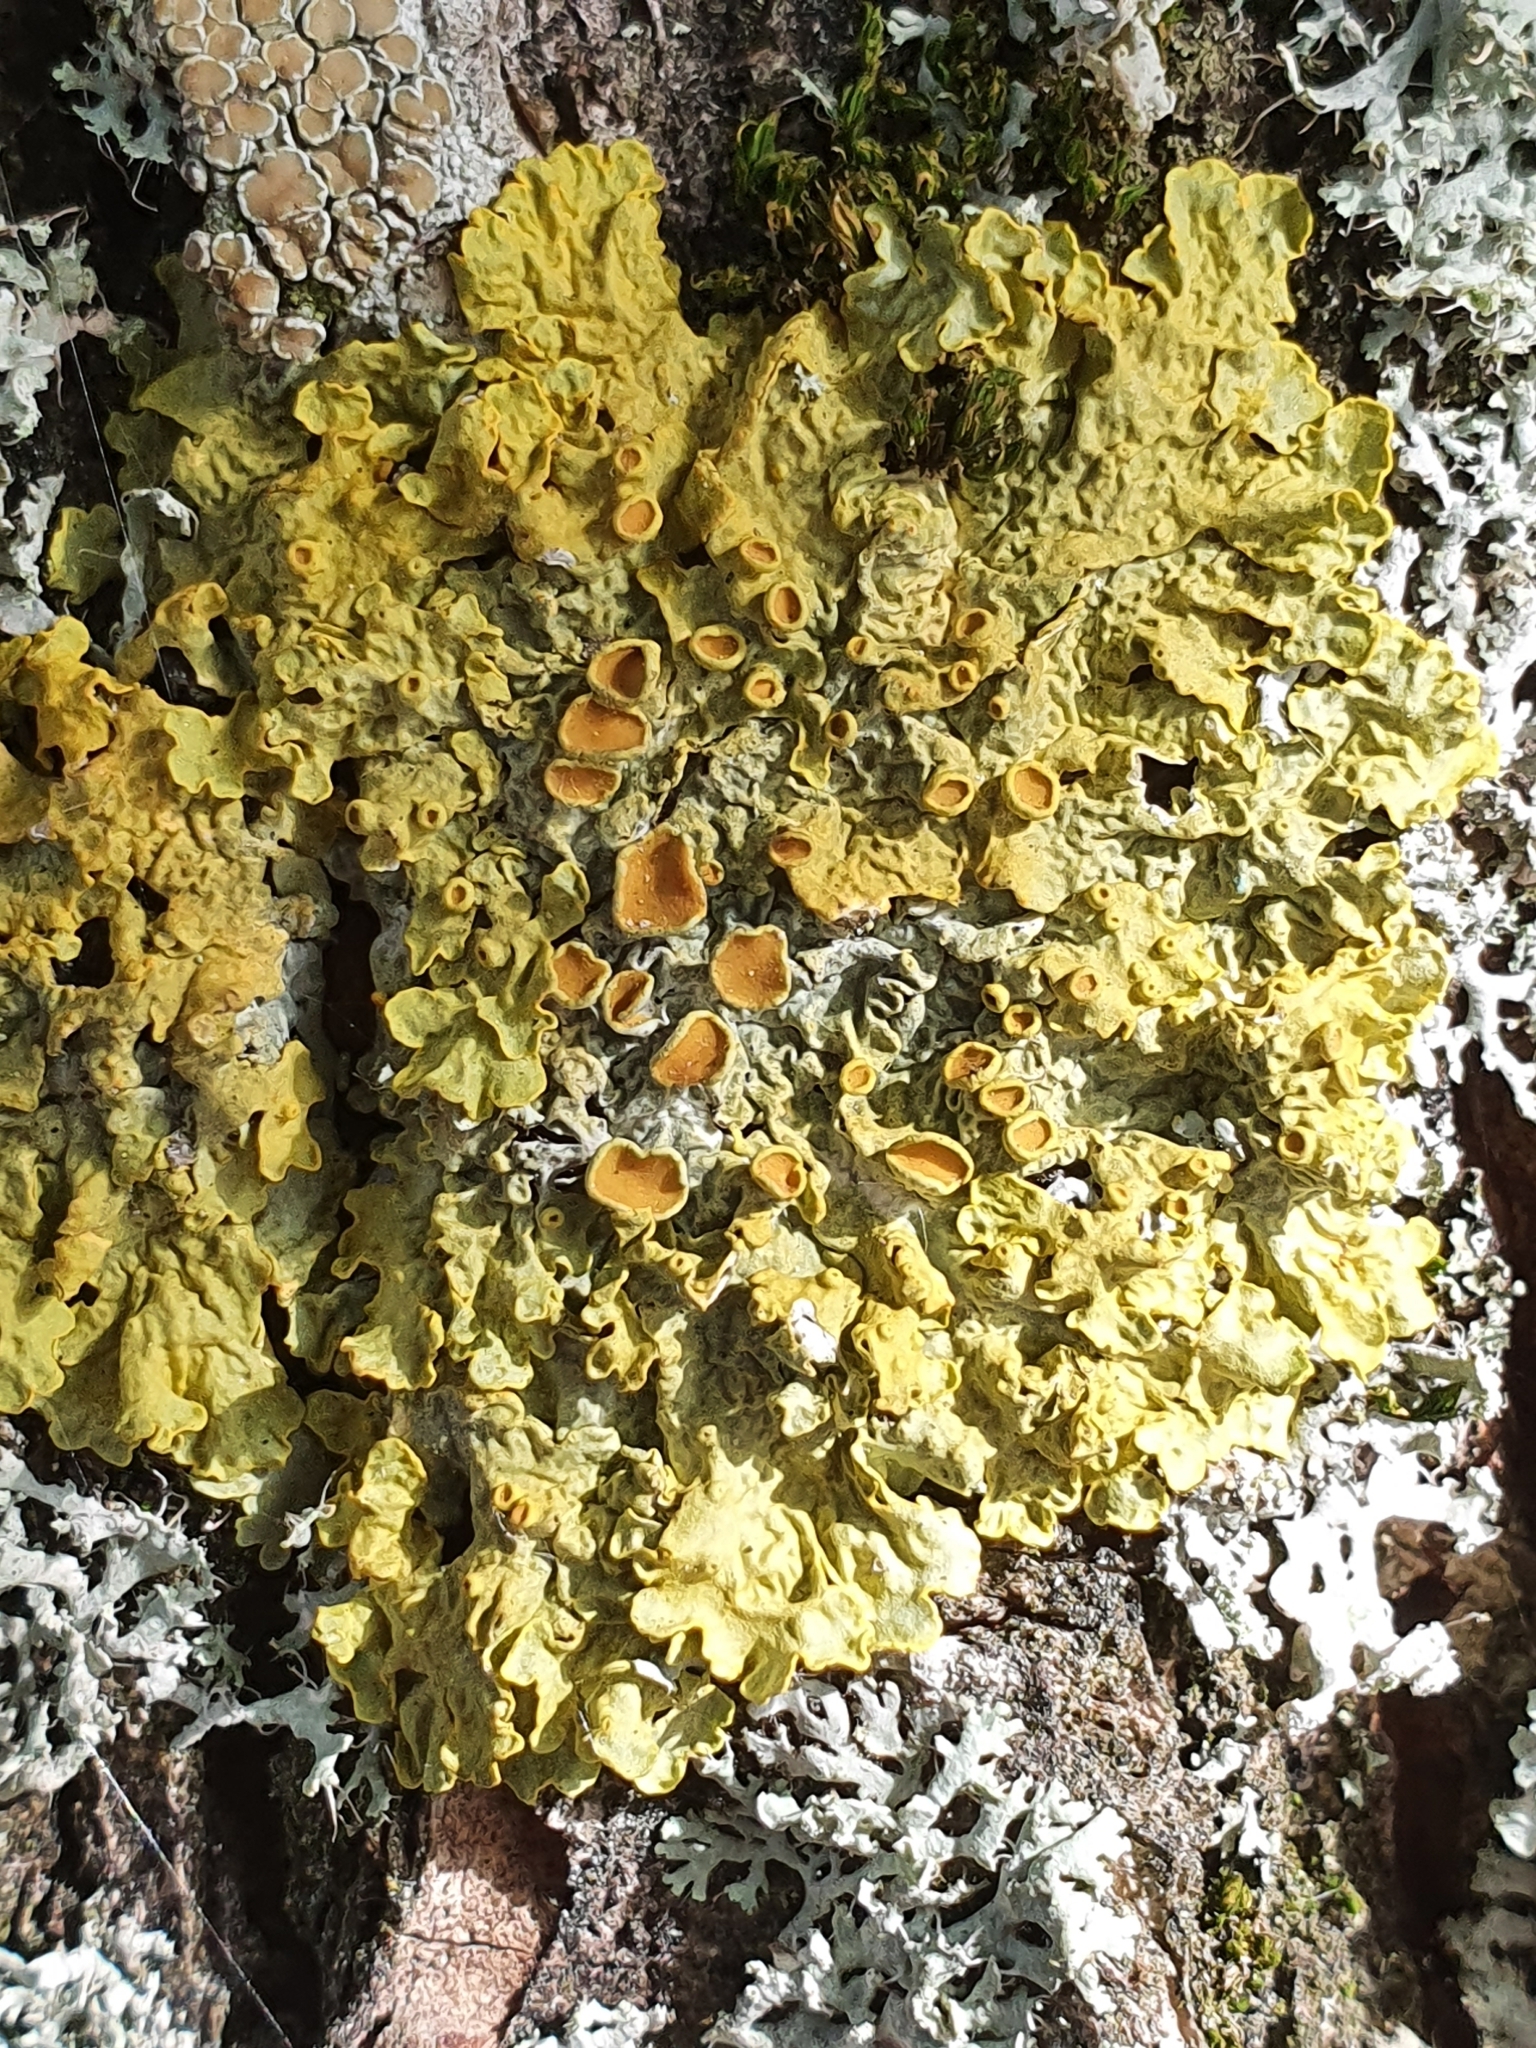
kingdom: Fungi
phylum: Ascomycota
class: Lecanoromycetes
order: Teloschistales
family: Teloschistaceae
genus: Xanthoria
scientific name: Xanthoria parietina
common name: Common orange lichen
